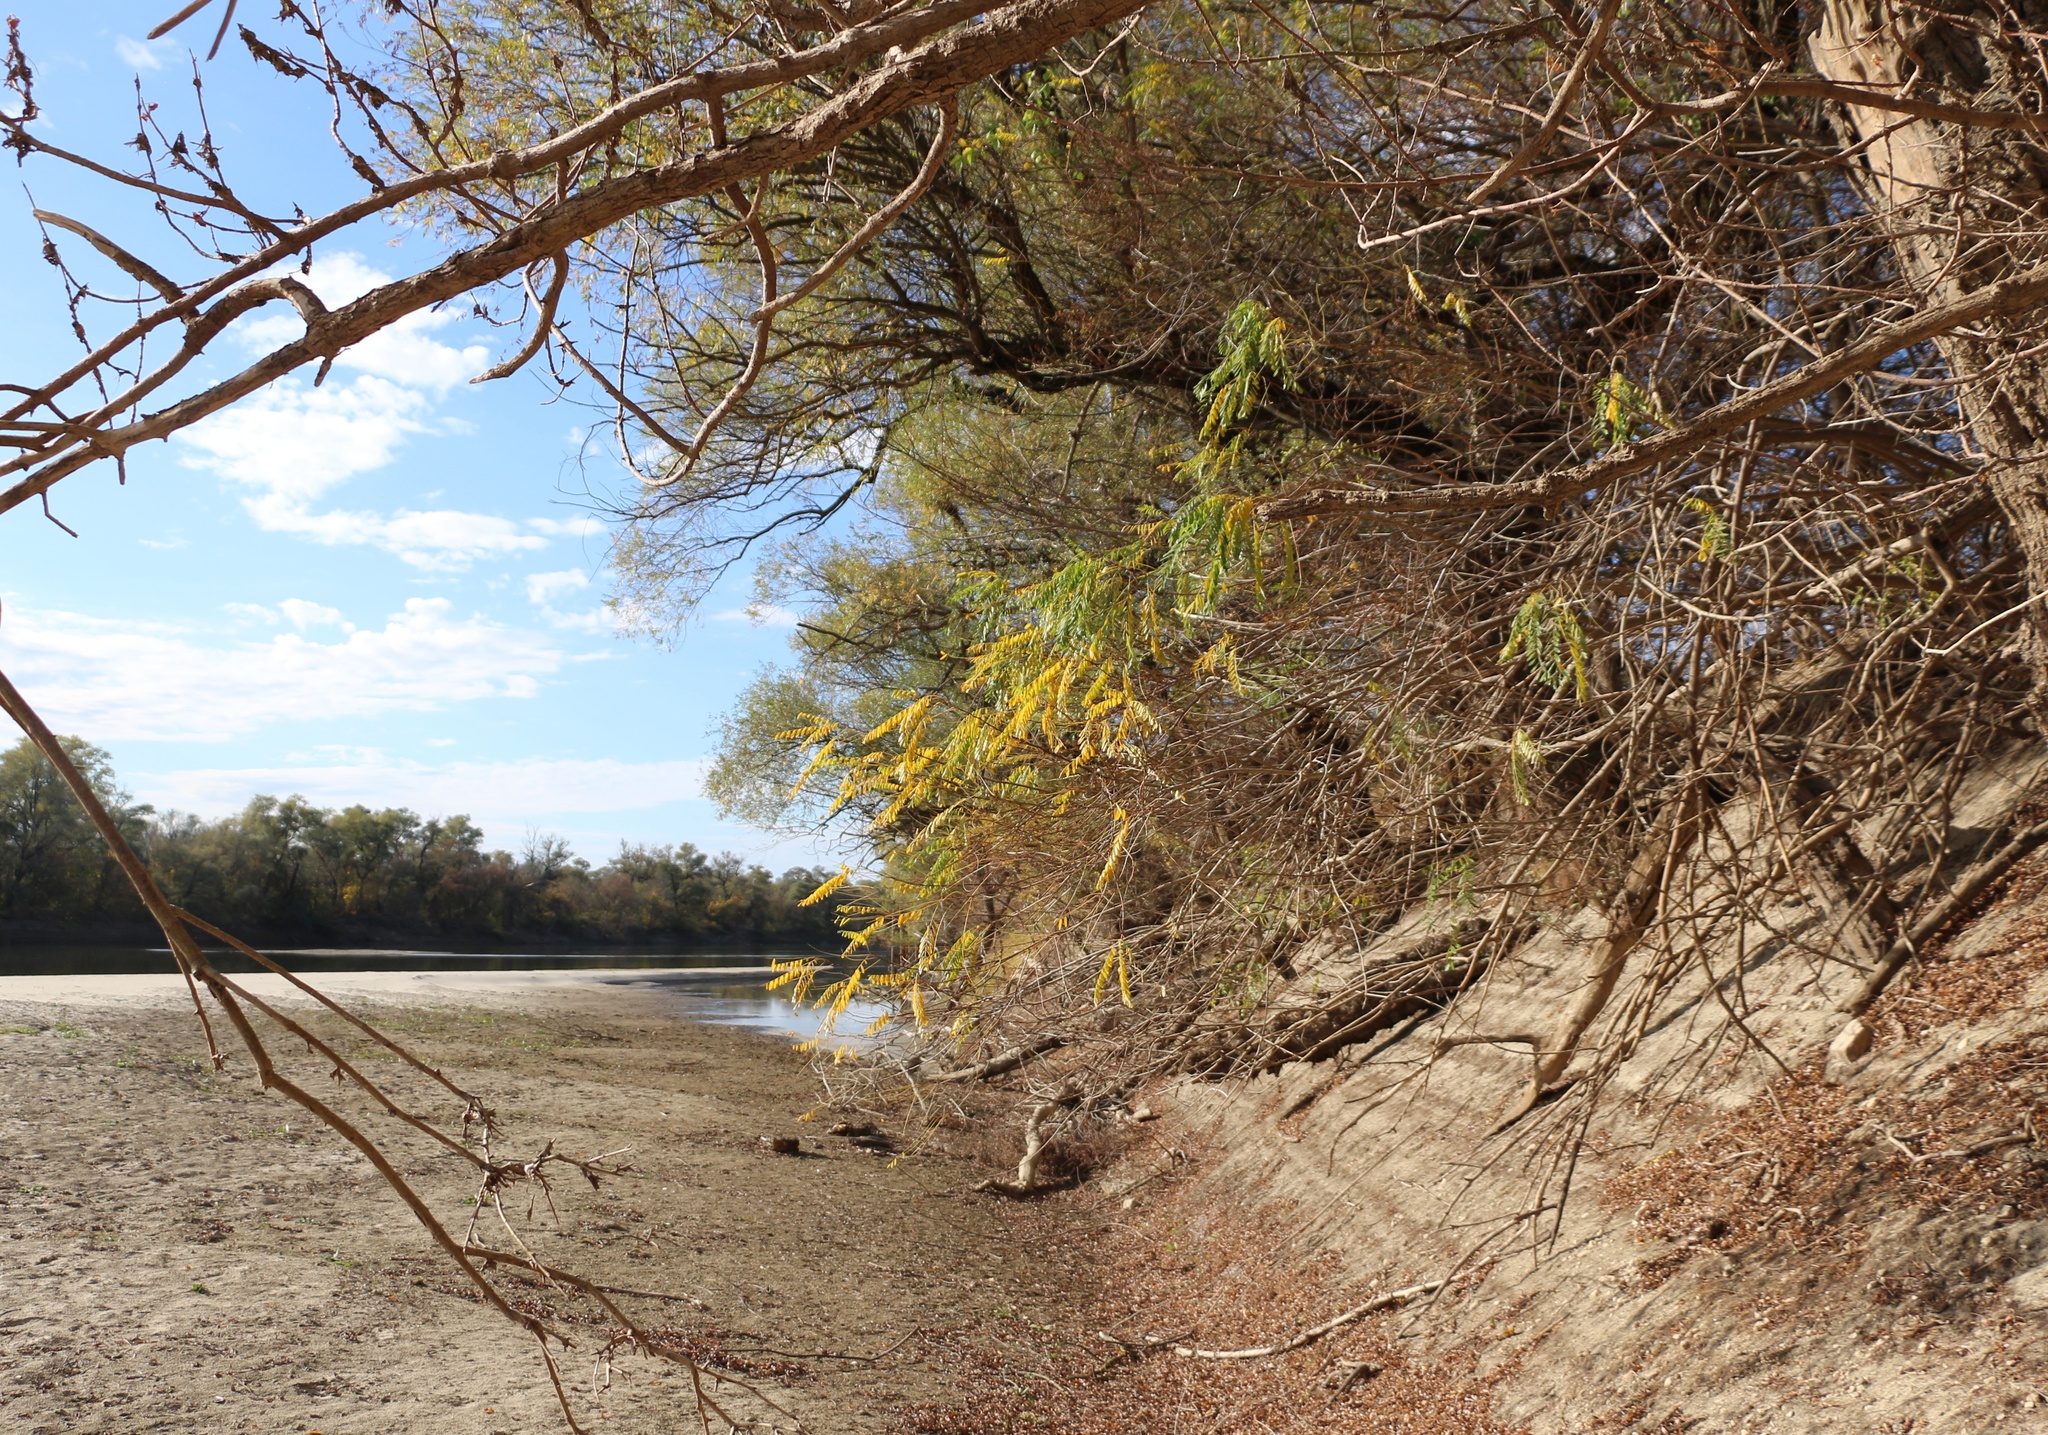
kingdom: Plantae
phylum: Tracheophyta
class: Magnoliopsida
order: Fabales
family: Fabaceae
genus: Amorpha
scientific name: Amorpha fruticosa
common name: False indigo
